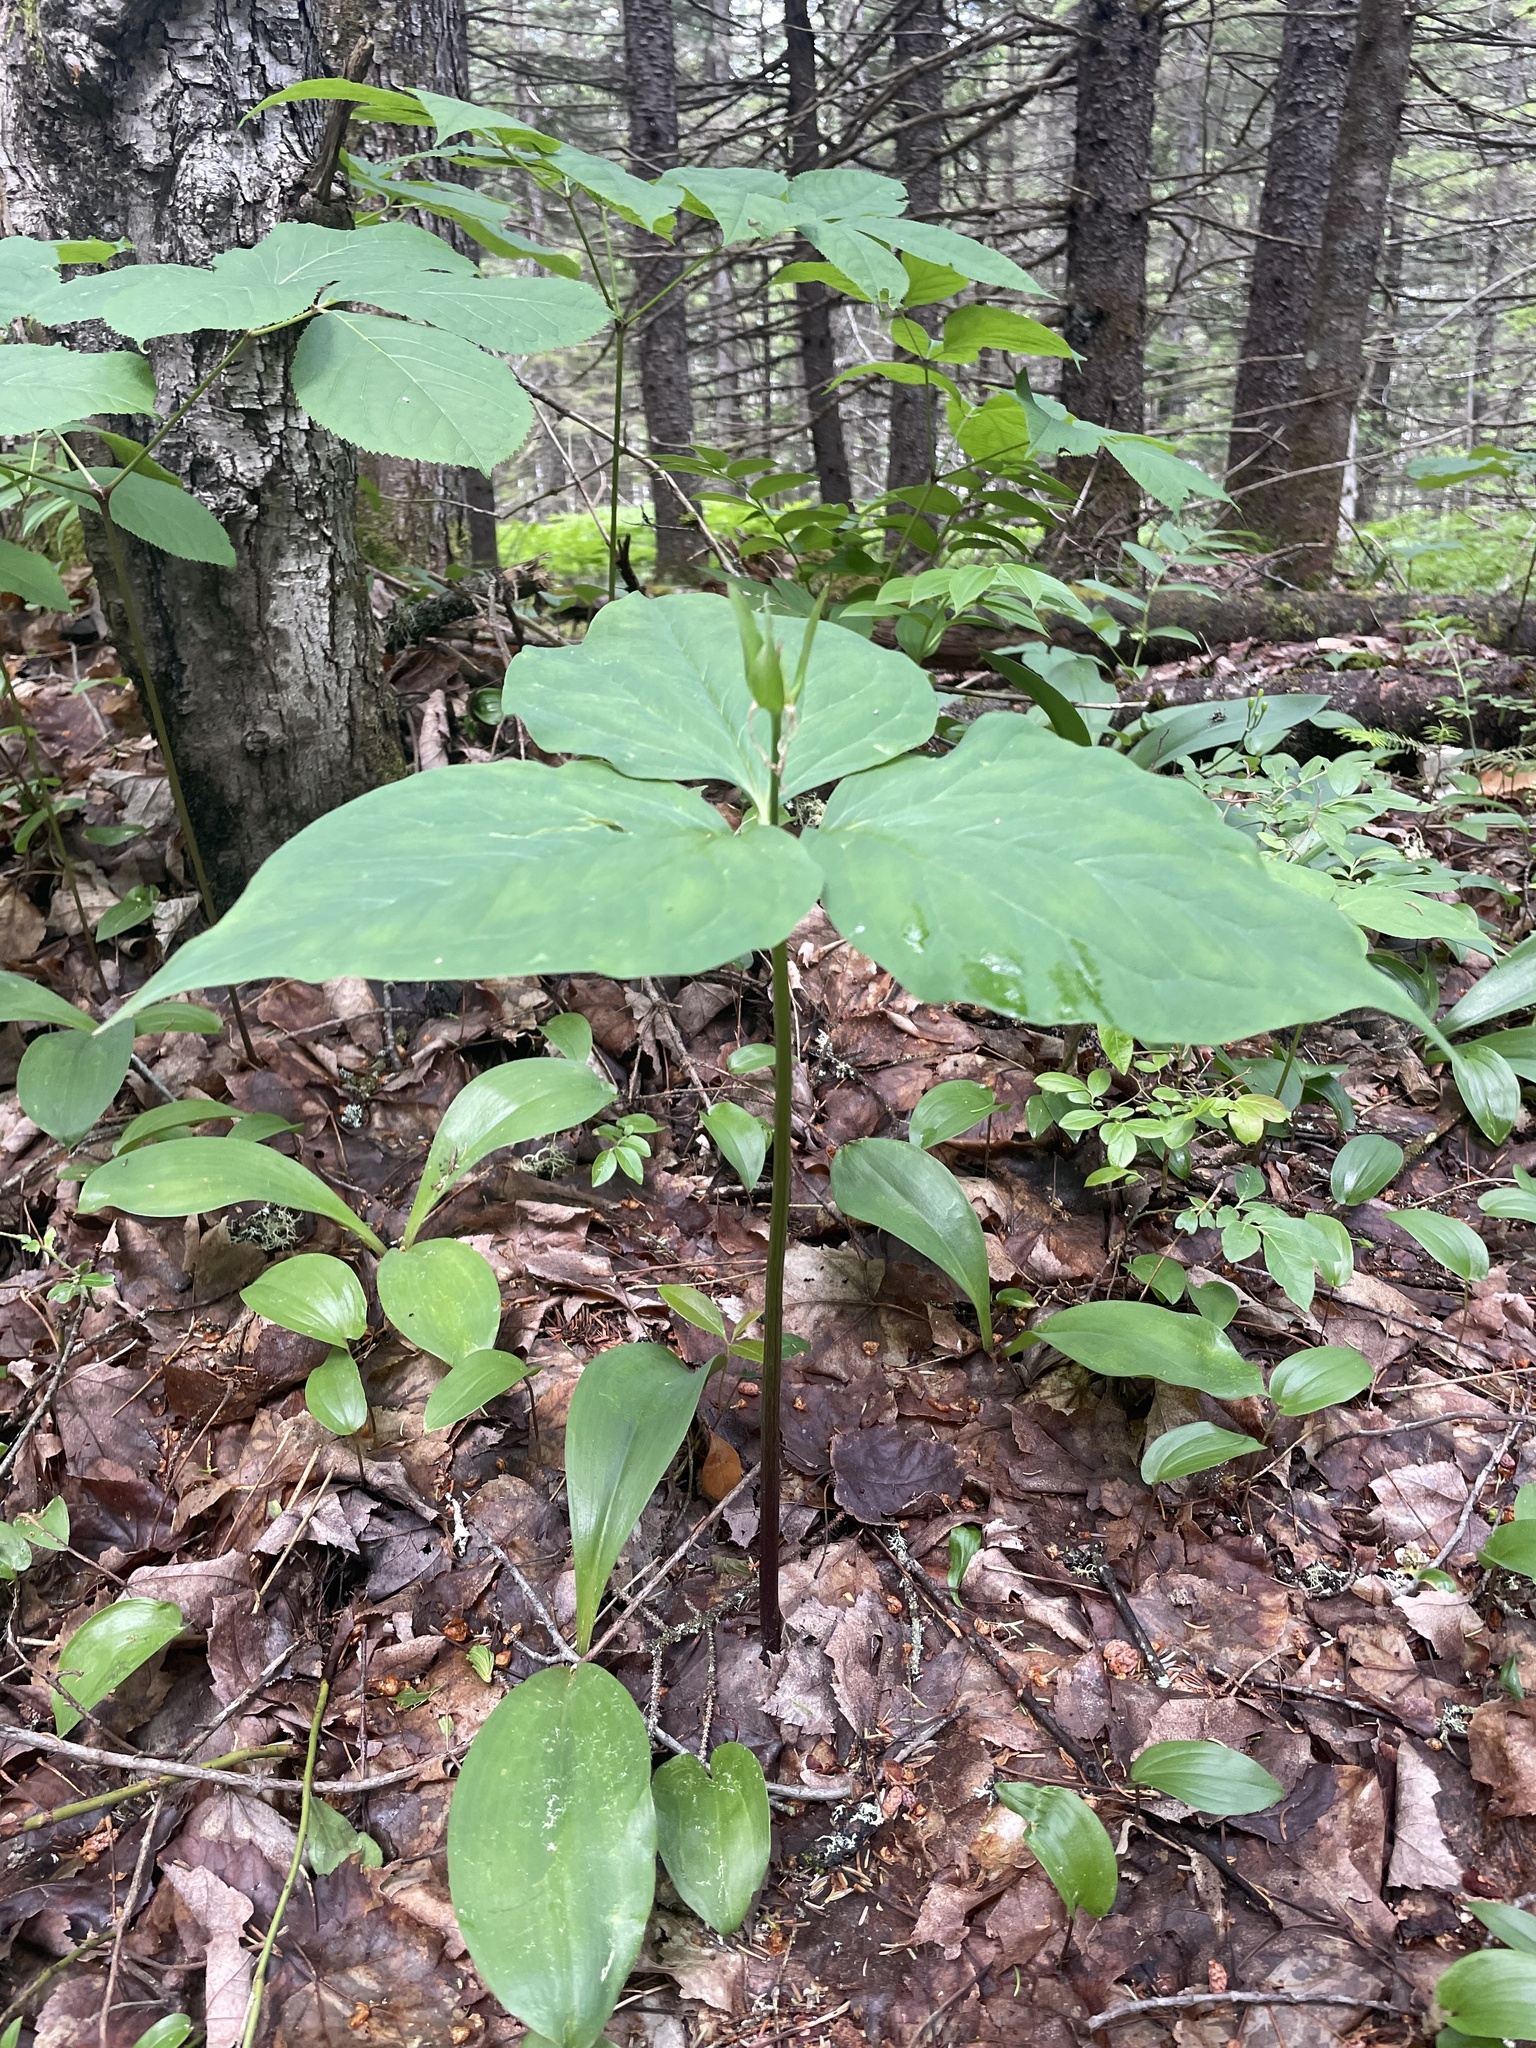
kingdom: Plantae
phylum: Tracheophyta
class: Liliopsida
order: Liliales
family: Melanthiaceae
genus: Trillium
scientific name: Trillium undulatum
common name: Paint trillium
